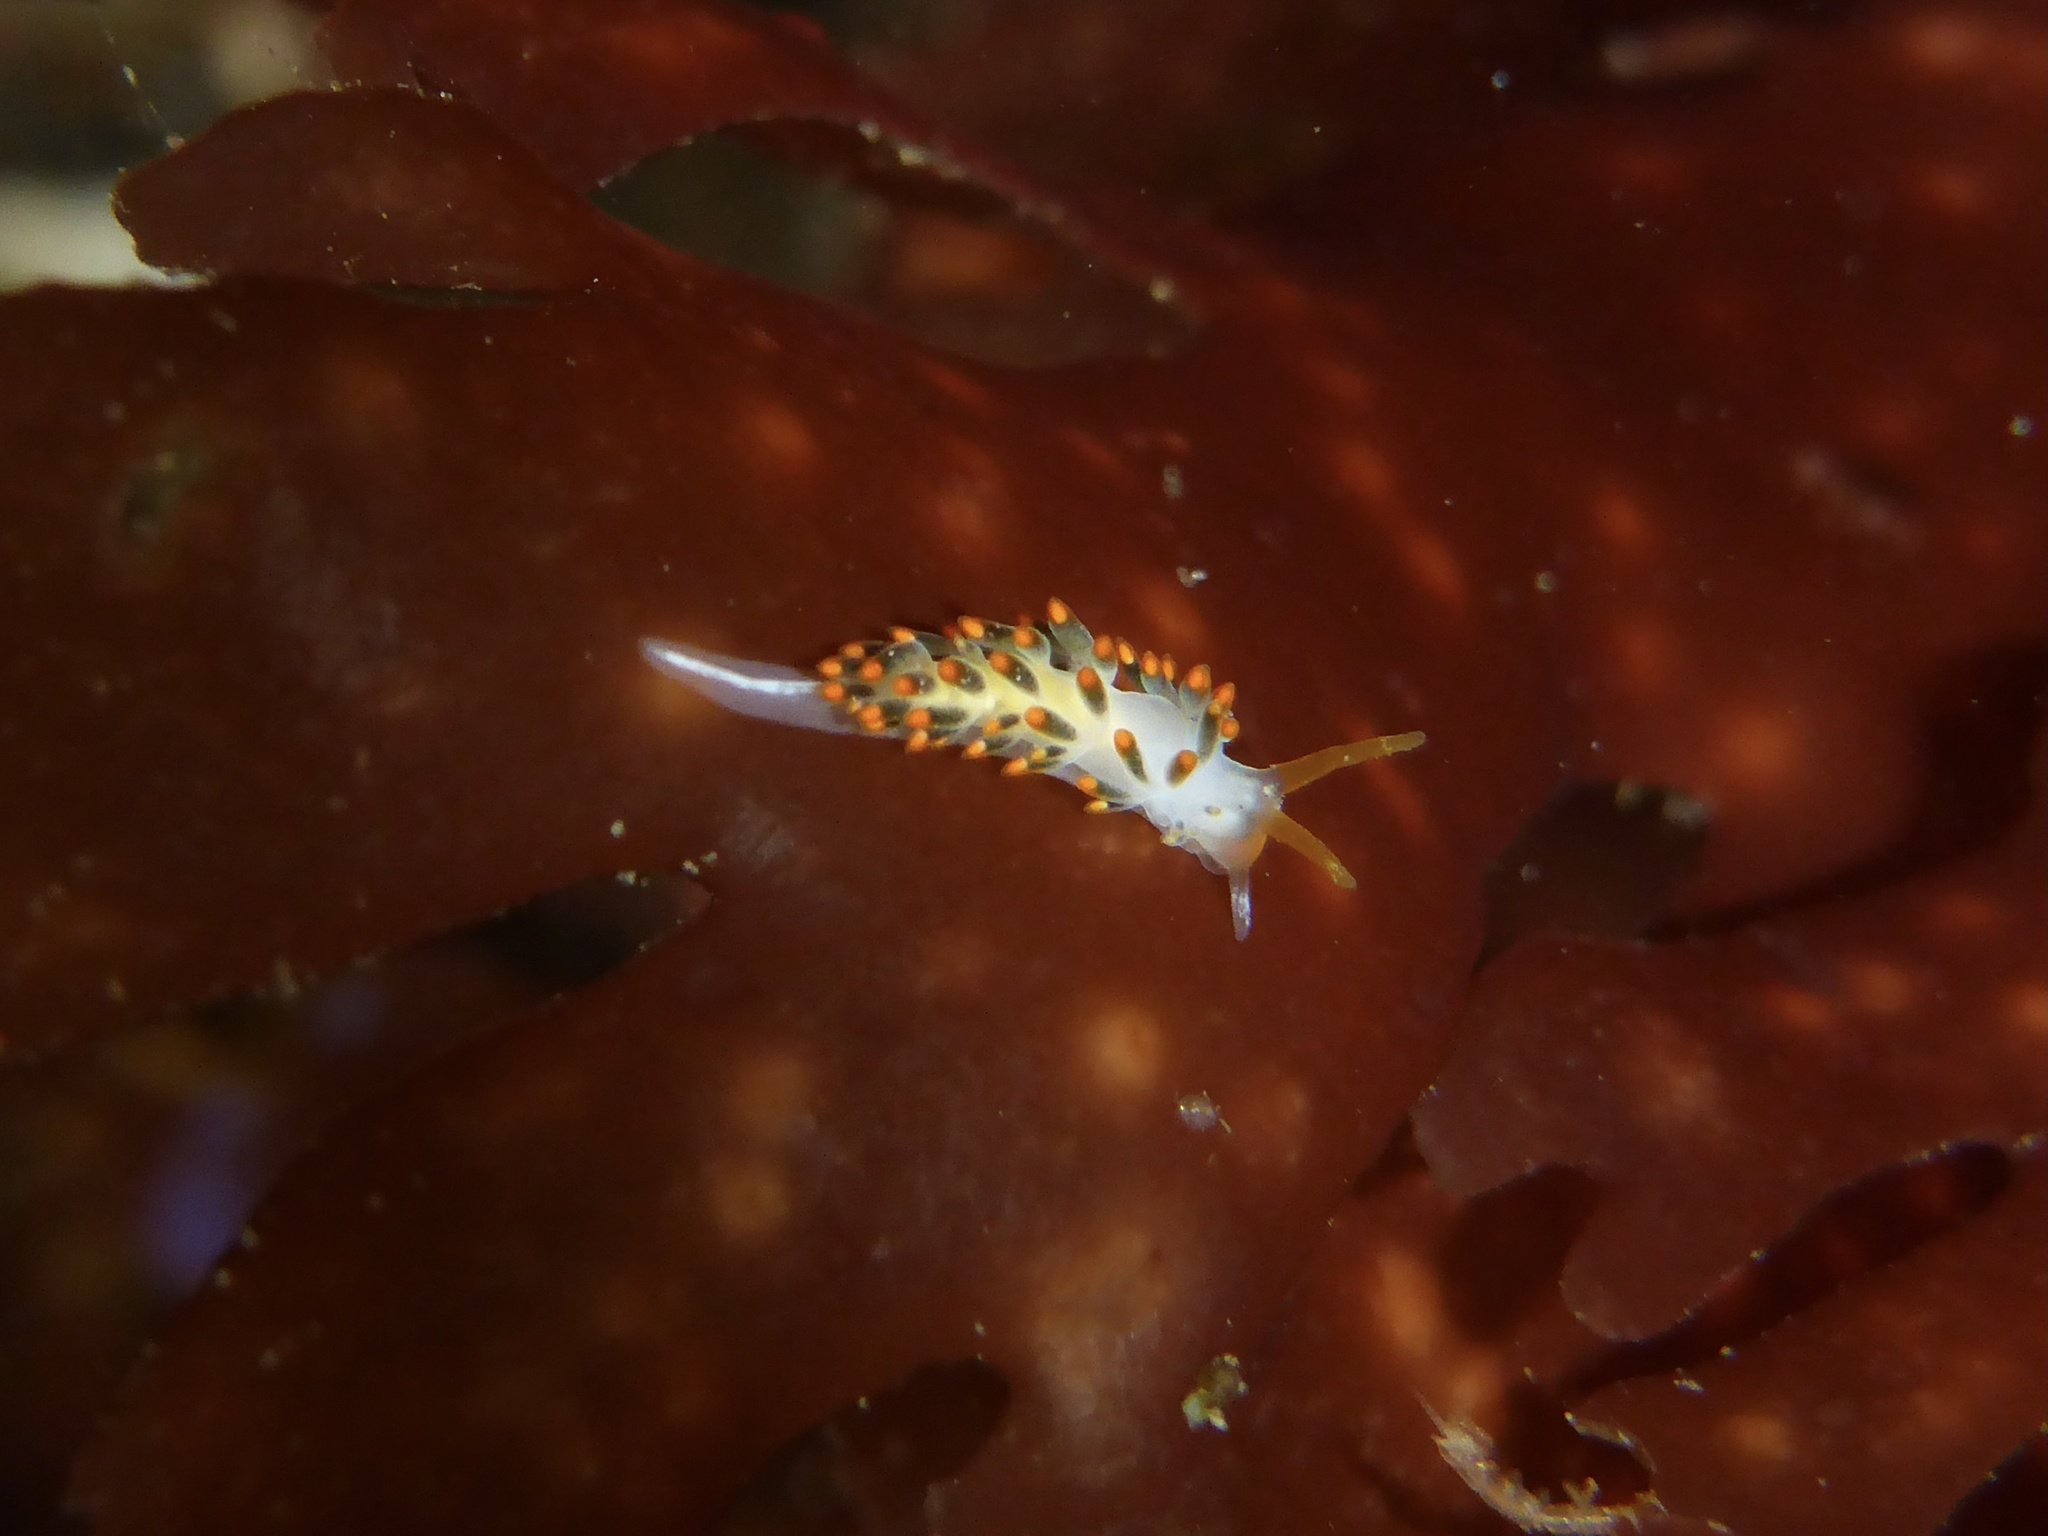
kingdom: Animalia
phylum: Mollusca
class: Gastropoda
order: Nudibranchia
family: Trinchesiidae
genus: Diaphoreolis
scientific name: Diaphoreolis lagunae
